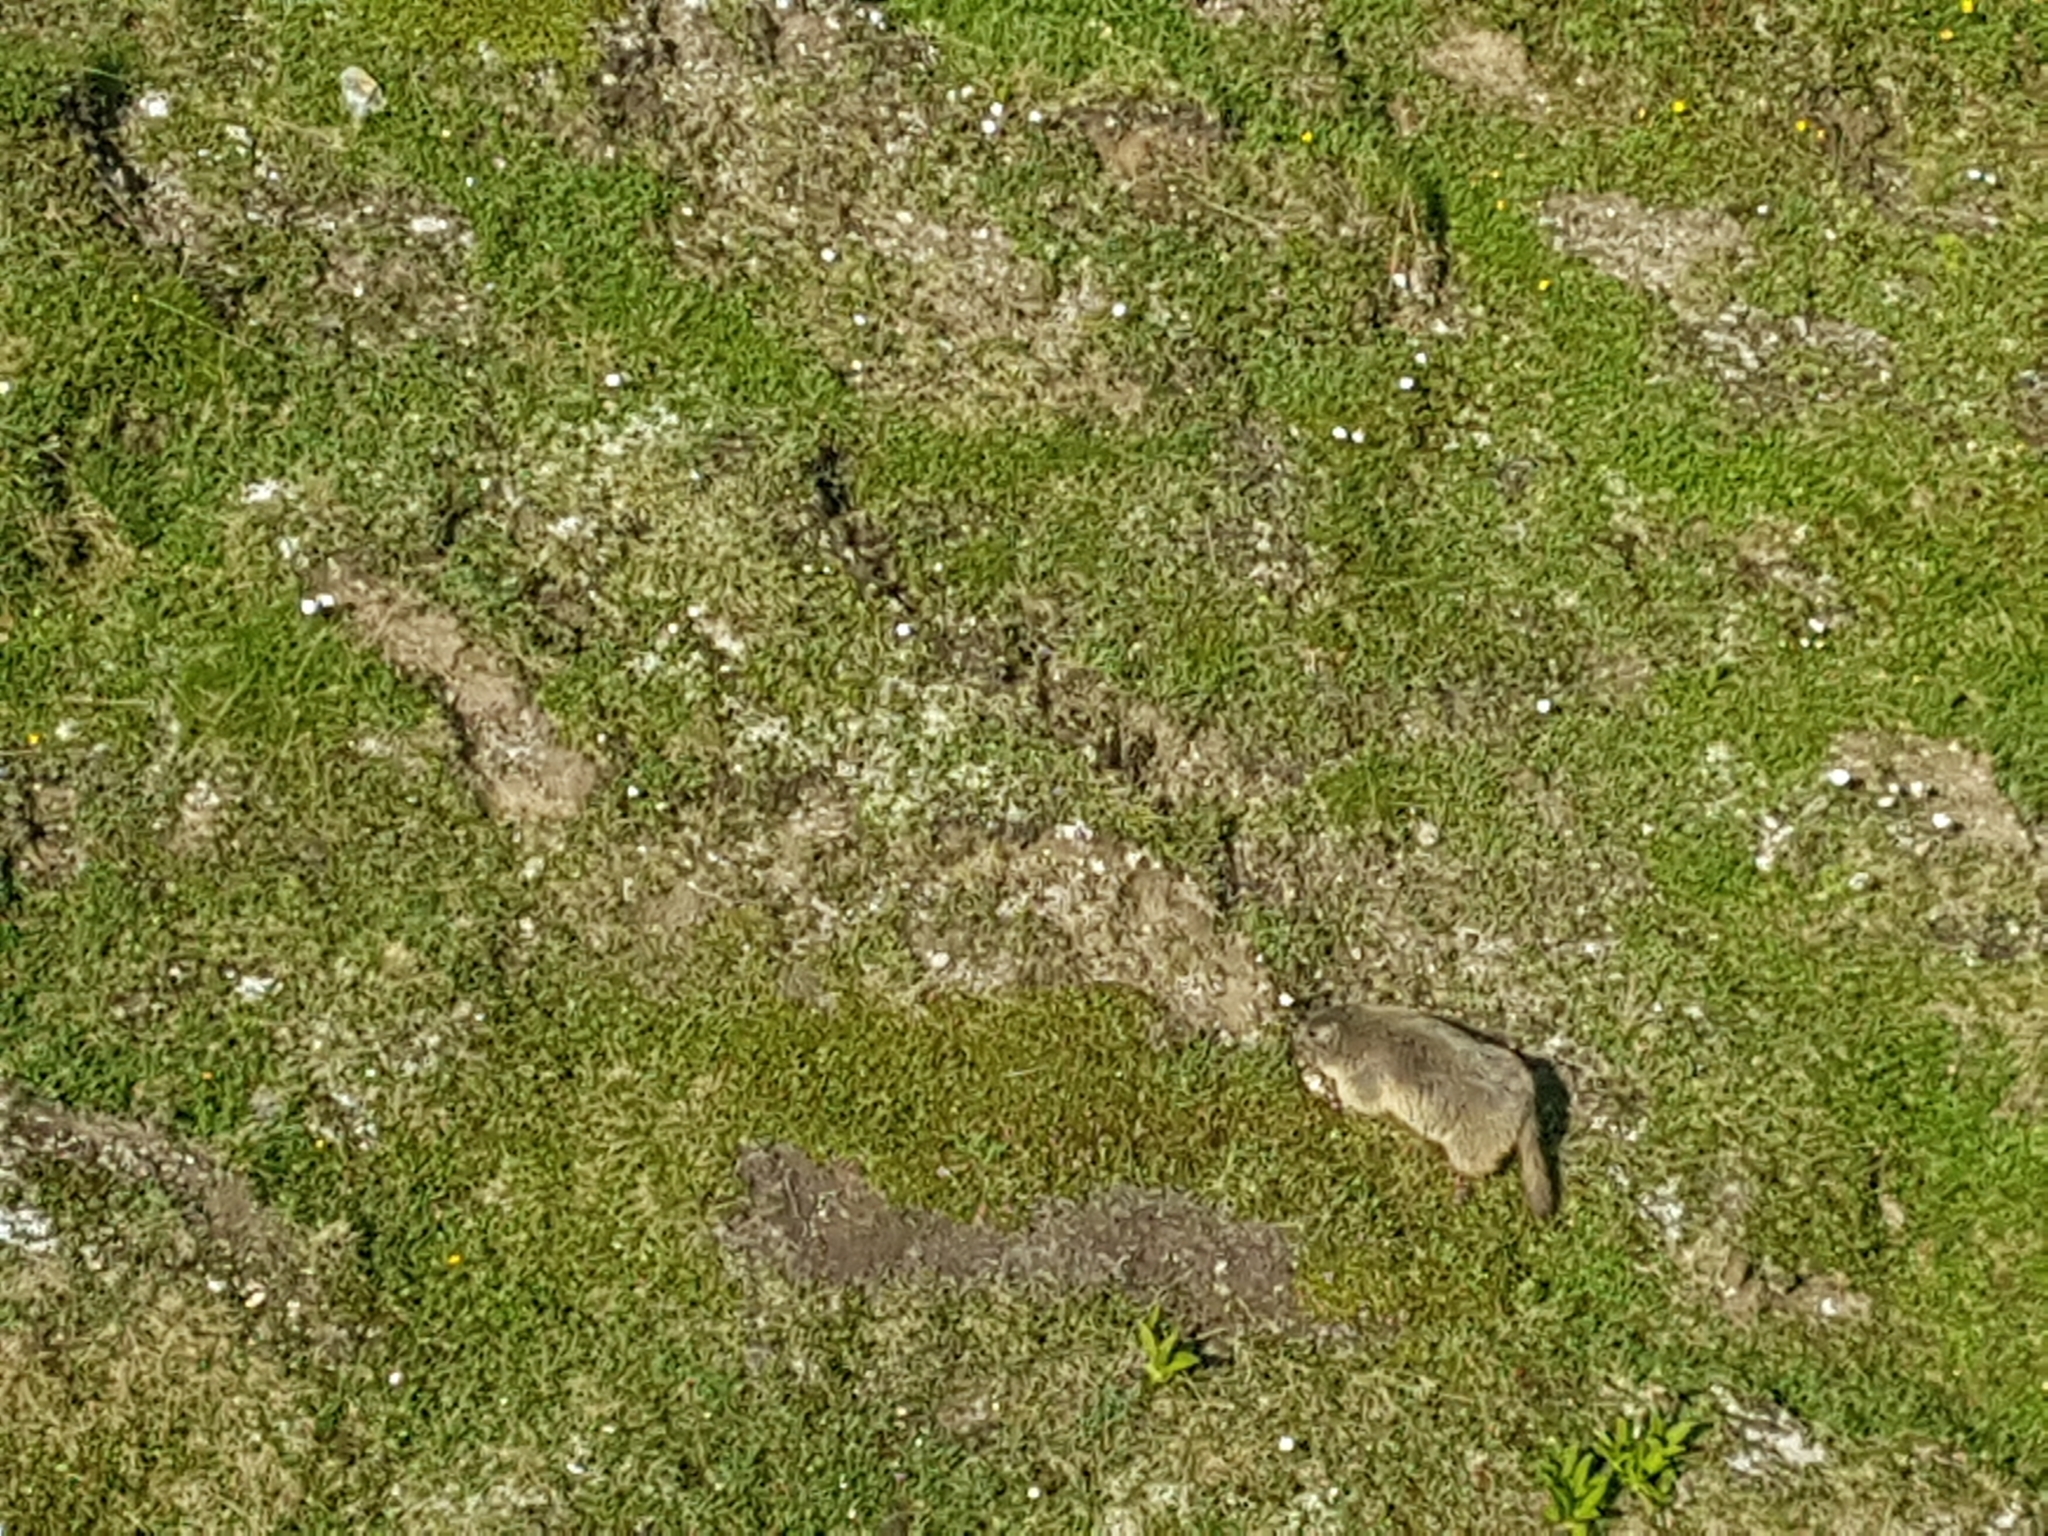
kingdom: Animalia
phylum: Chordata
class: Mammalia
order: Rodentia
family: Sciuridae
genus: Marmota
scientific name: Marmota marmota
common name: Alpine marmot
